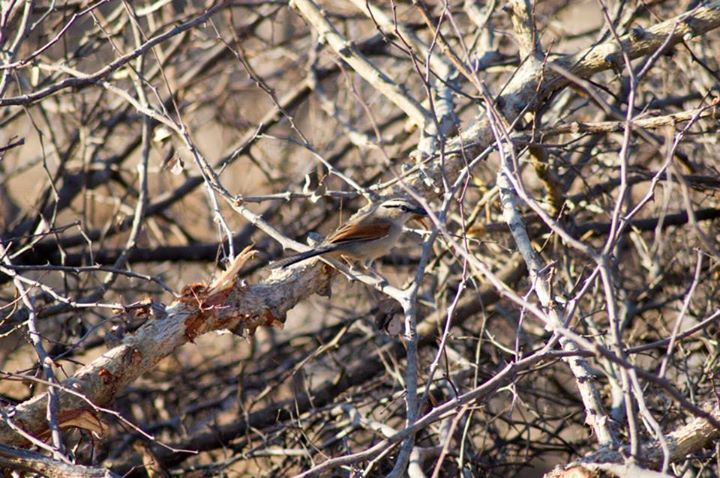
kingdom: Animalia
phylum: Chordata
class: Aves
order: Passeriformes
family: Malaconotidae
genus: Tchagra
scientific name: Tchagra australis
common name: Brown-crowned tchagra
